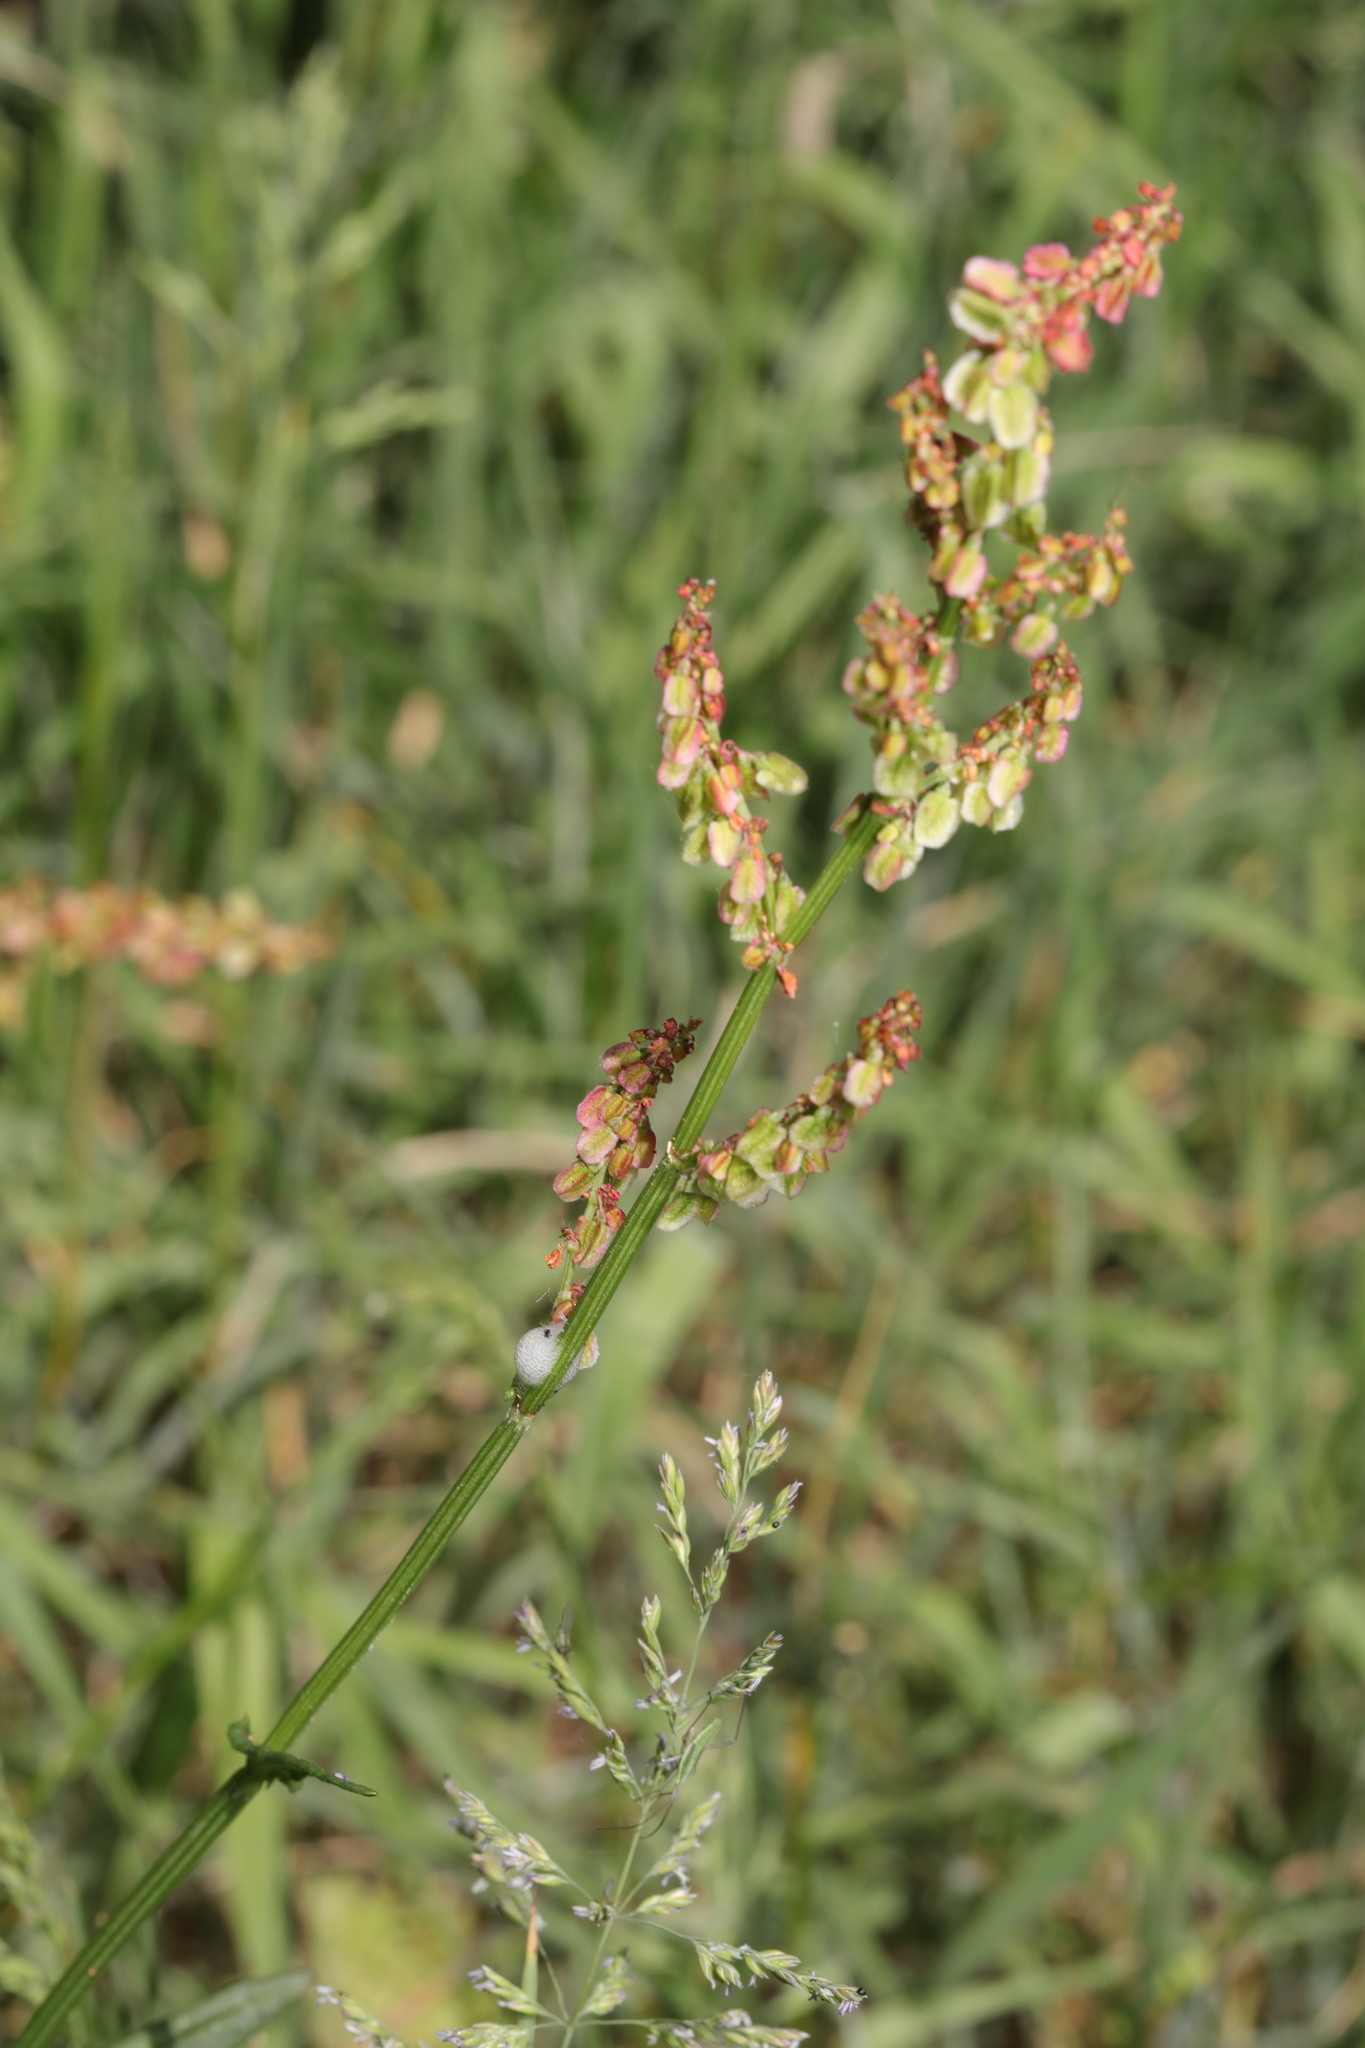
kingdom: Plantae
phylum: Tracheophyta
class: Magnoliopsida
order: Caryophyllales
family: Polygonaceae
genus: Rumex
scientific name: Rumex acetosa
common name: Garden sorrel
